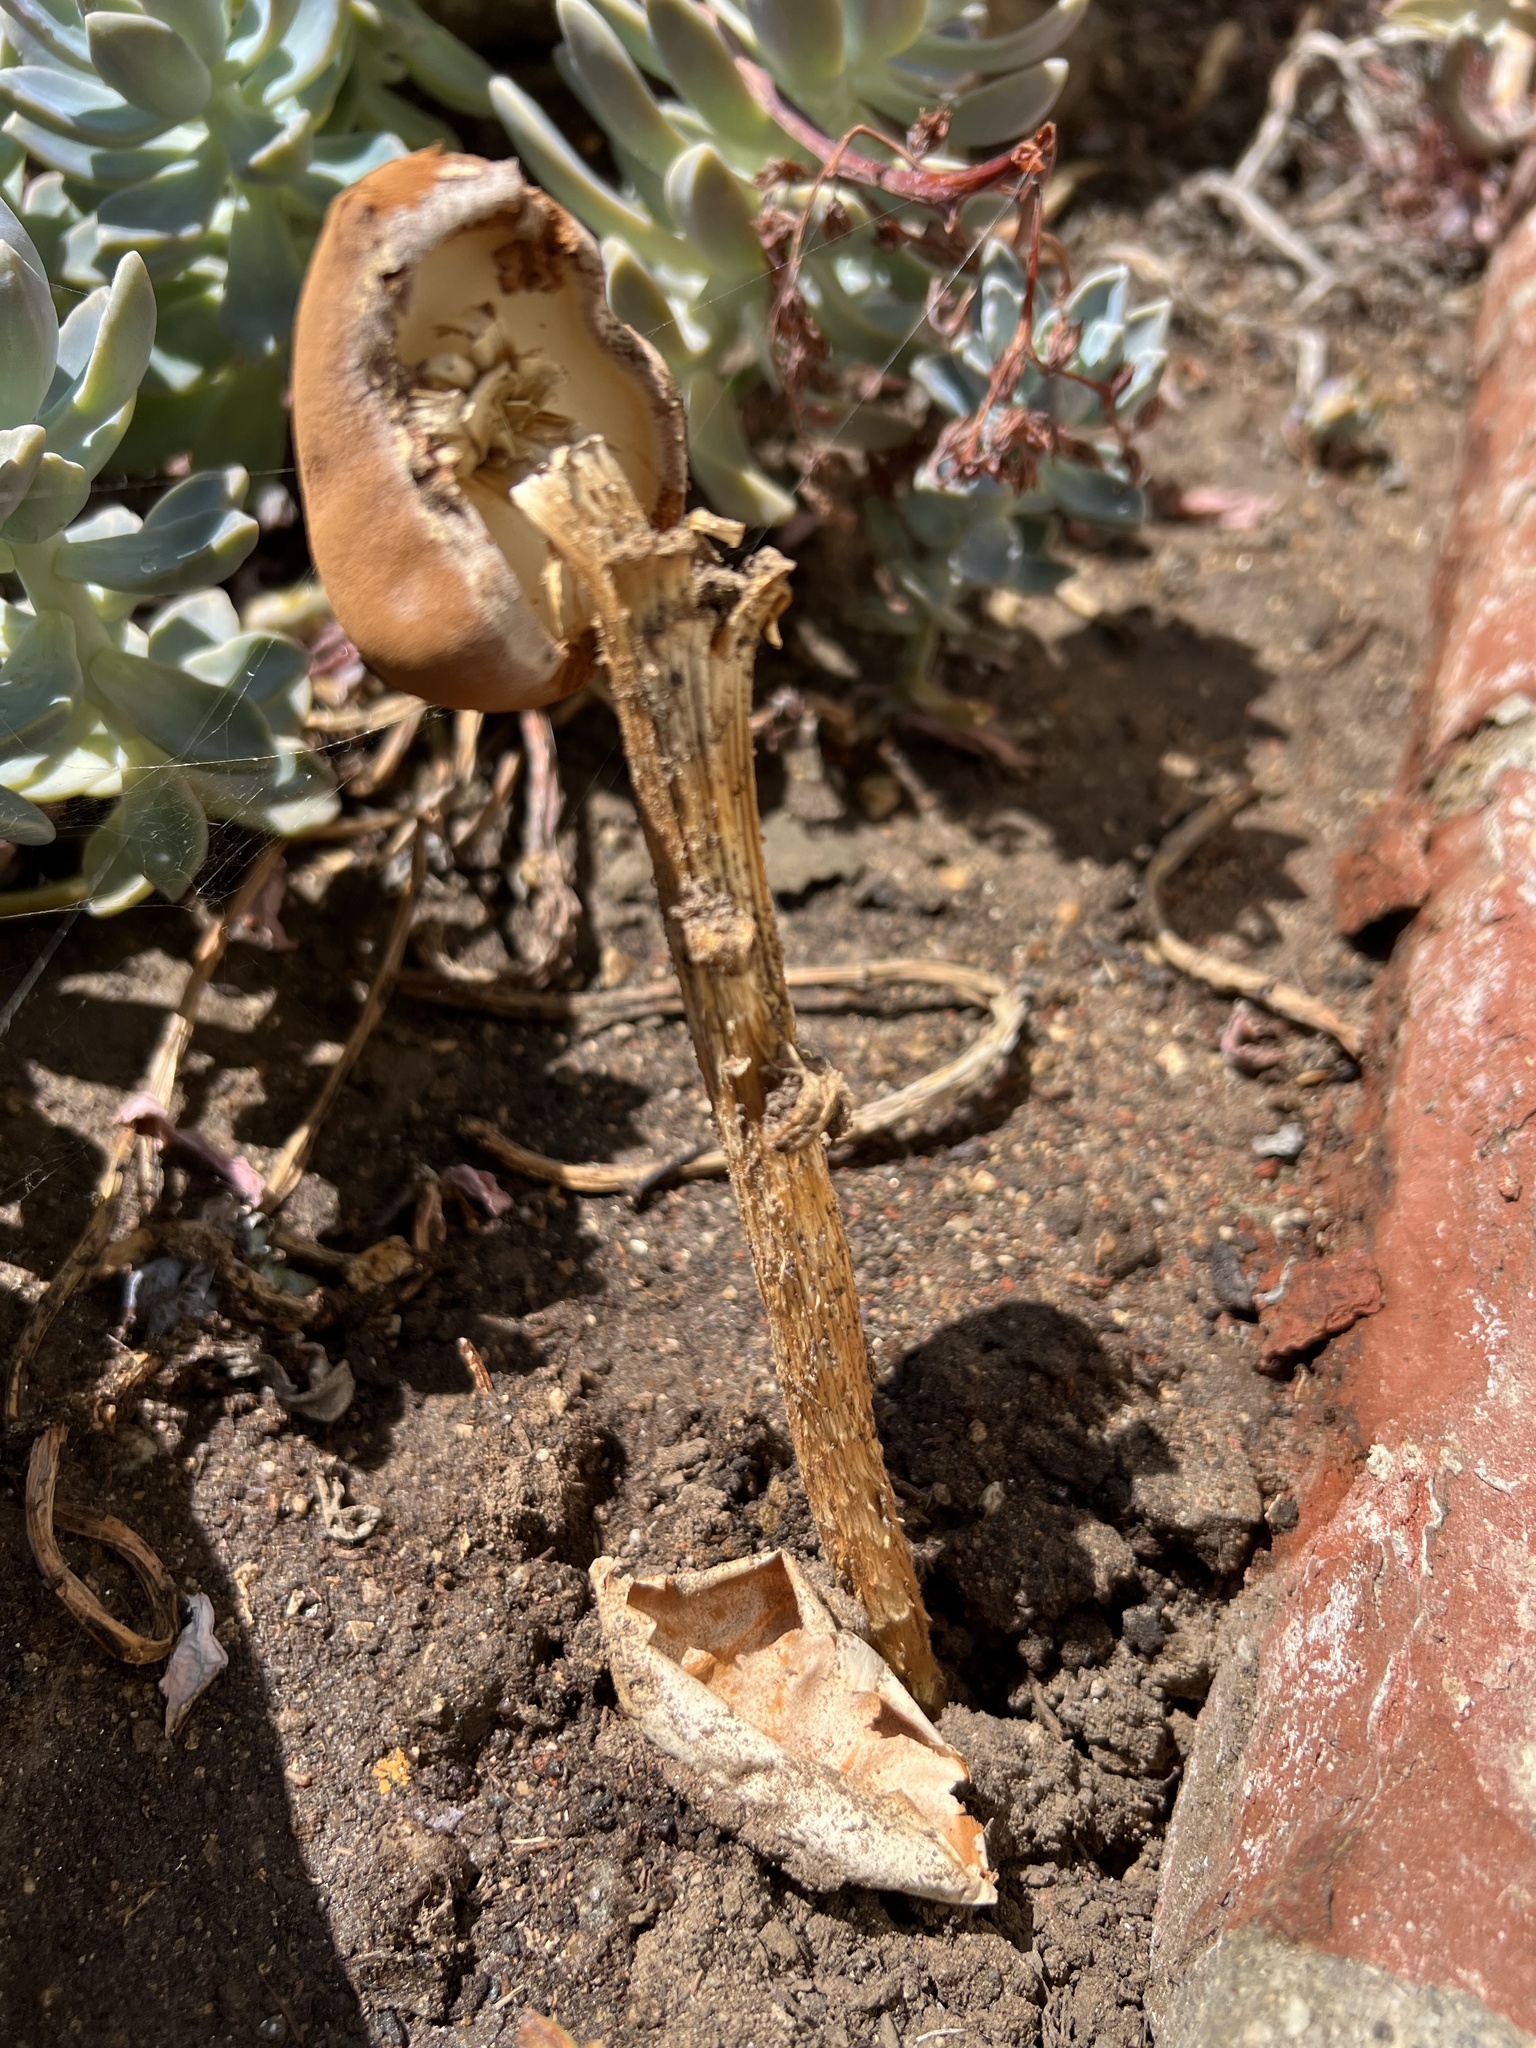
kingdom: Fungi
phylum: Basidiomycota
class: Agaricomycetes
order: Agaricales
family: Agaricaceae
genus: Battarrea
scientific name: Battarrea phalloides
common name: Sandy stiltball
